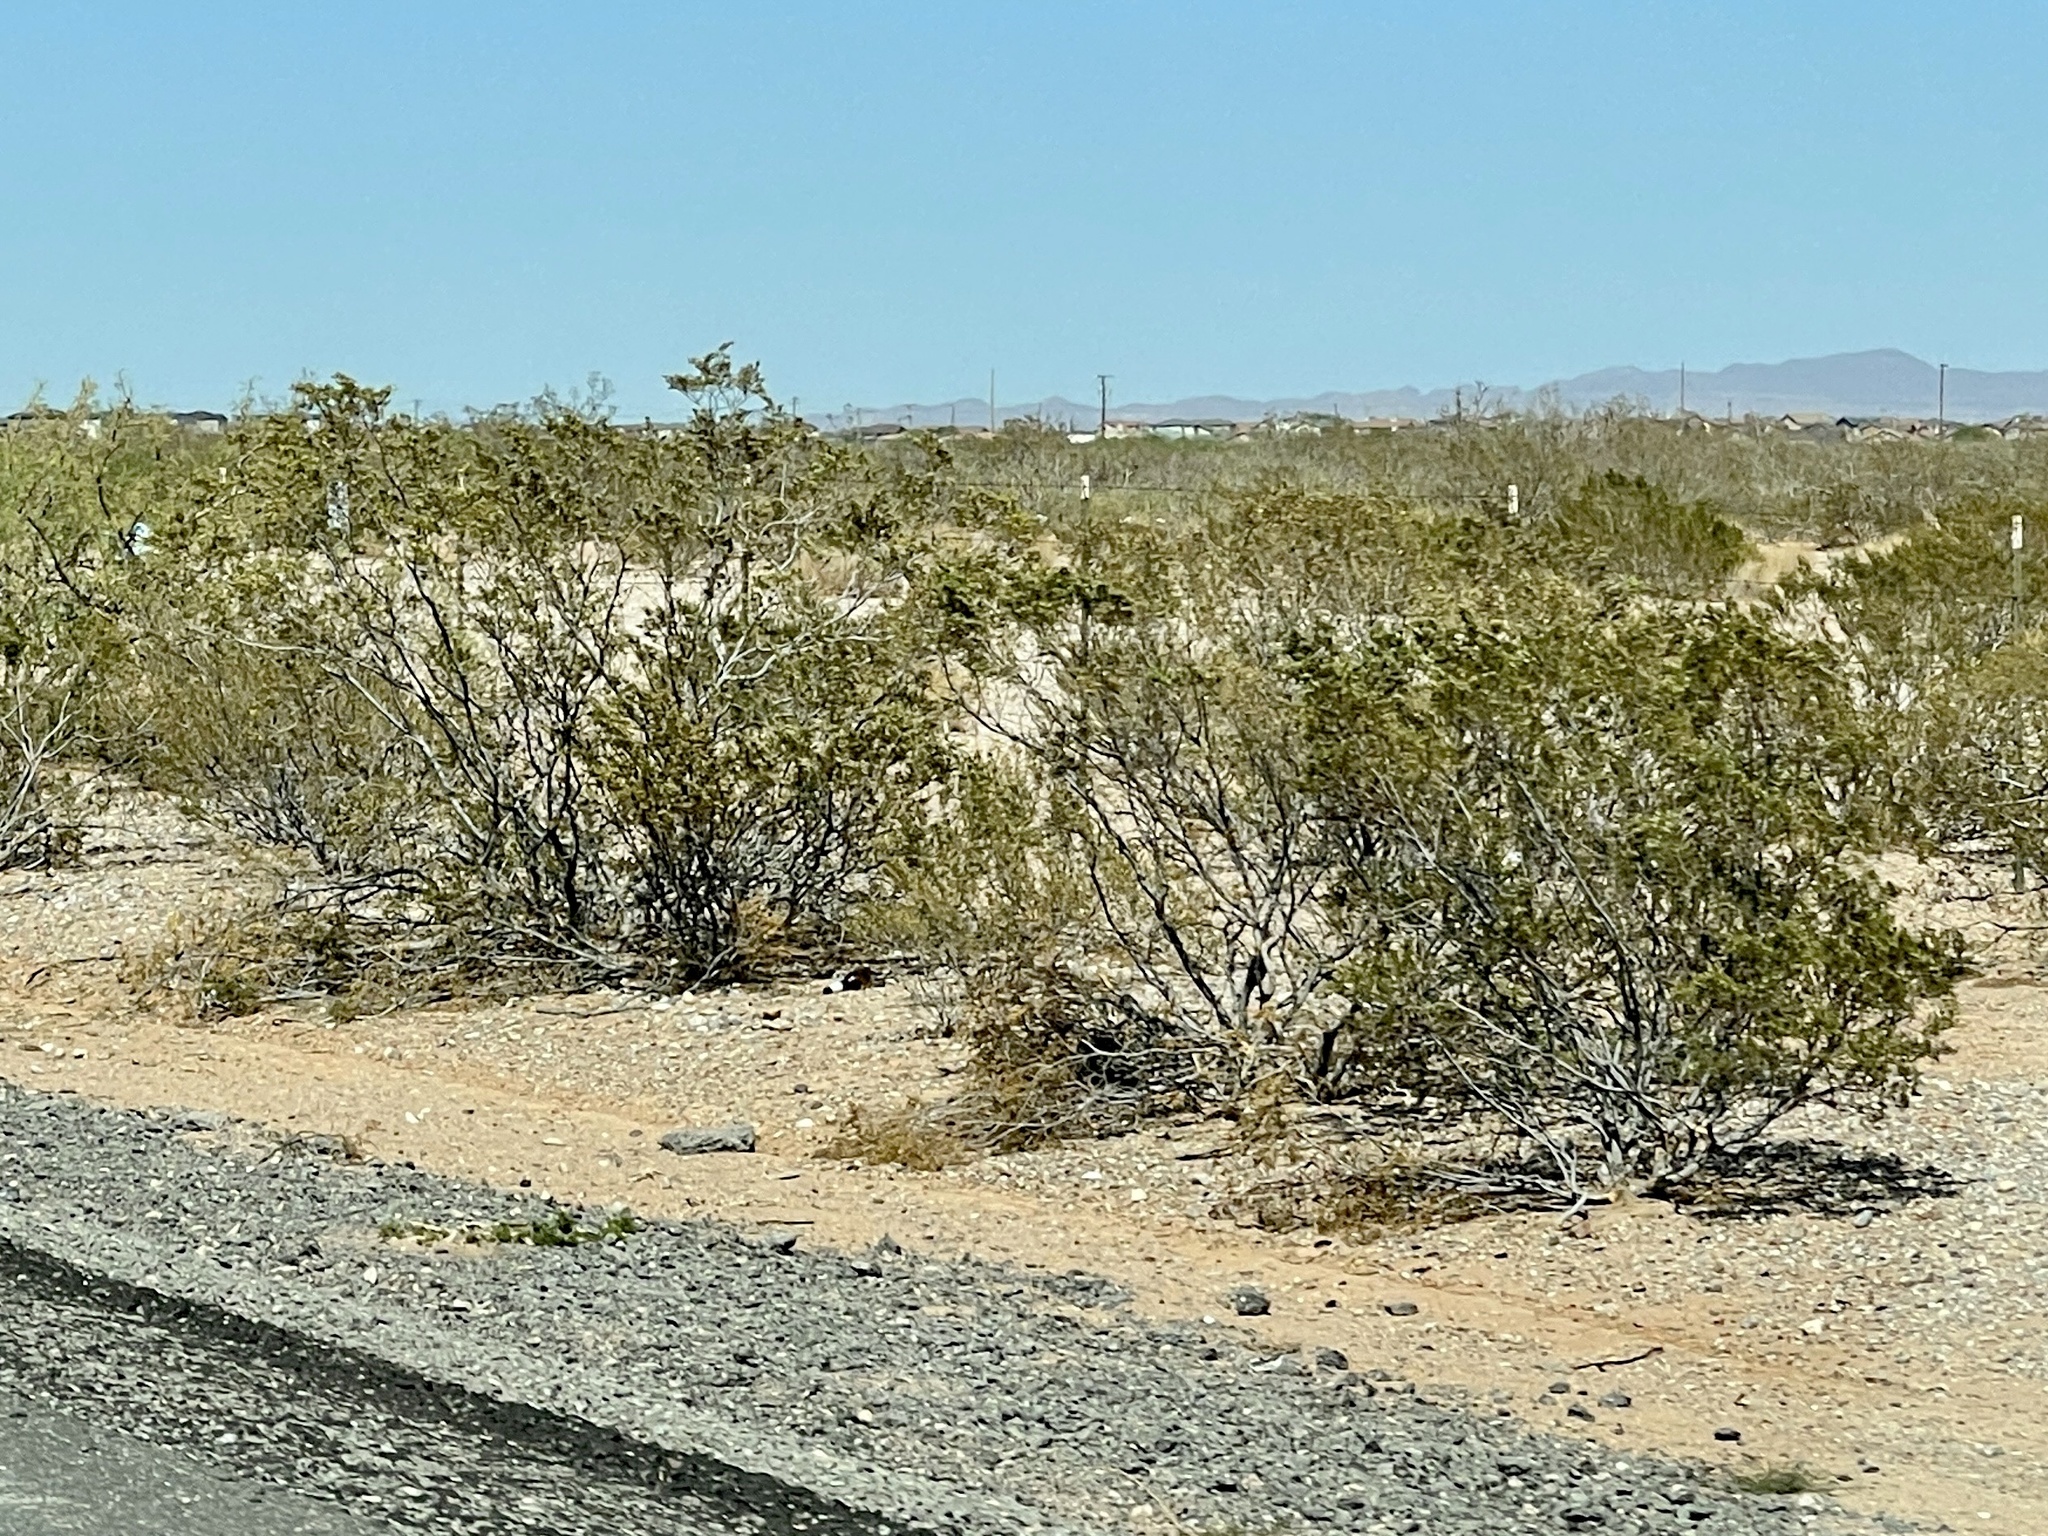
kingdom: Plantae
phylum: Tracheophyta
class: Magnoliopsida
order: Zygophyllales
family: Zygophyllaceae
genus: Larrea
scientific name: Larrea tridentata
